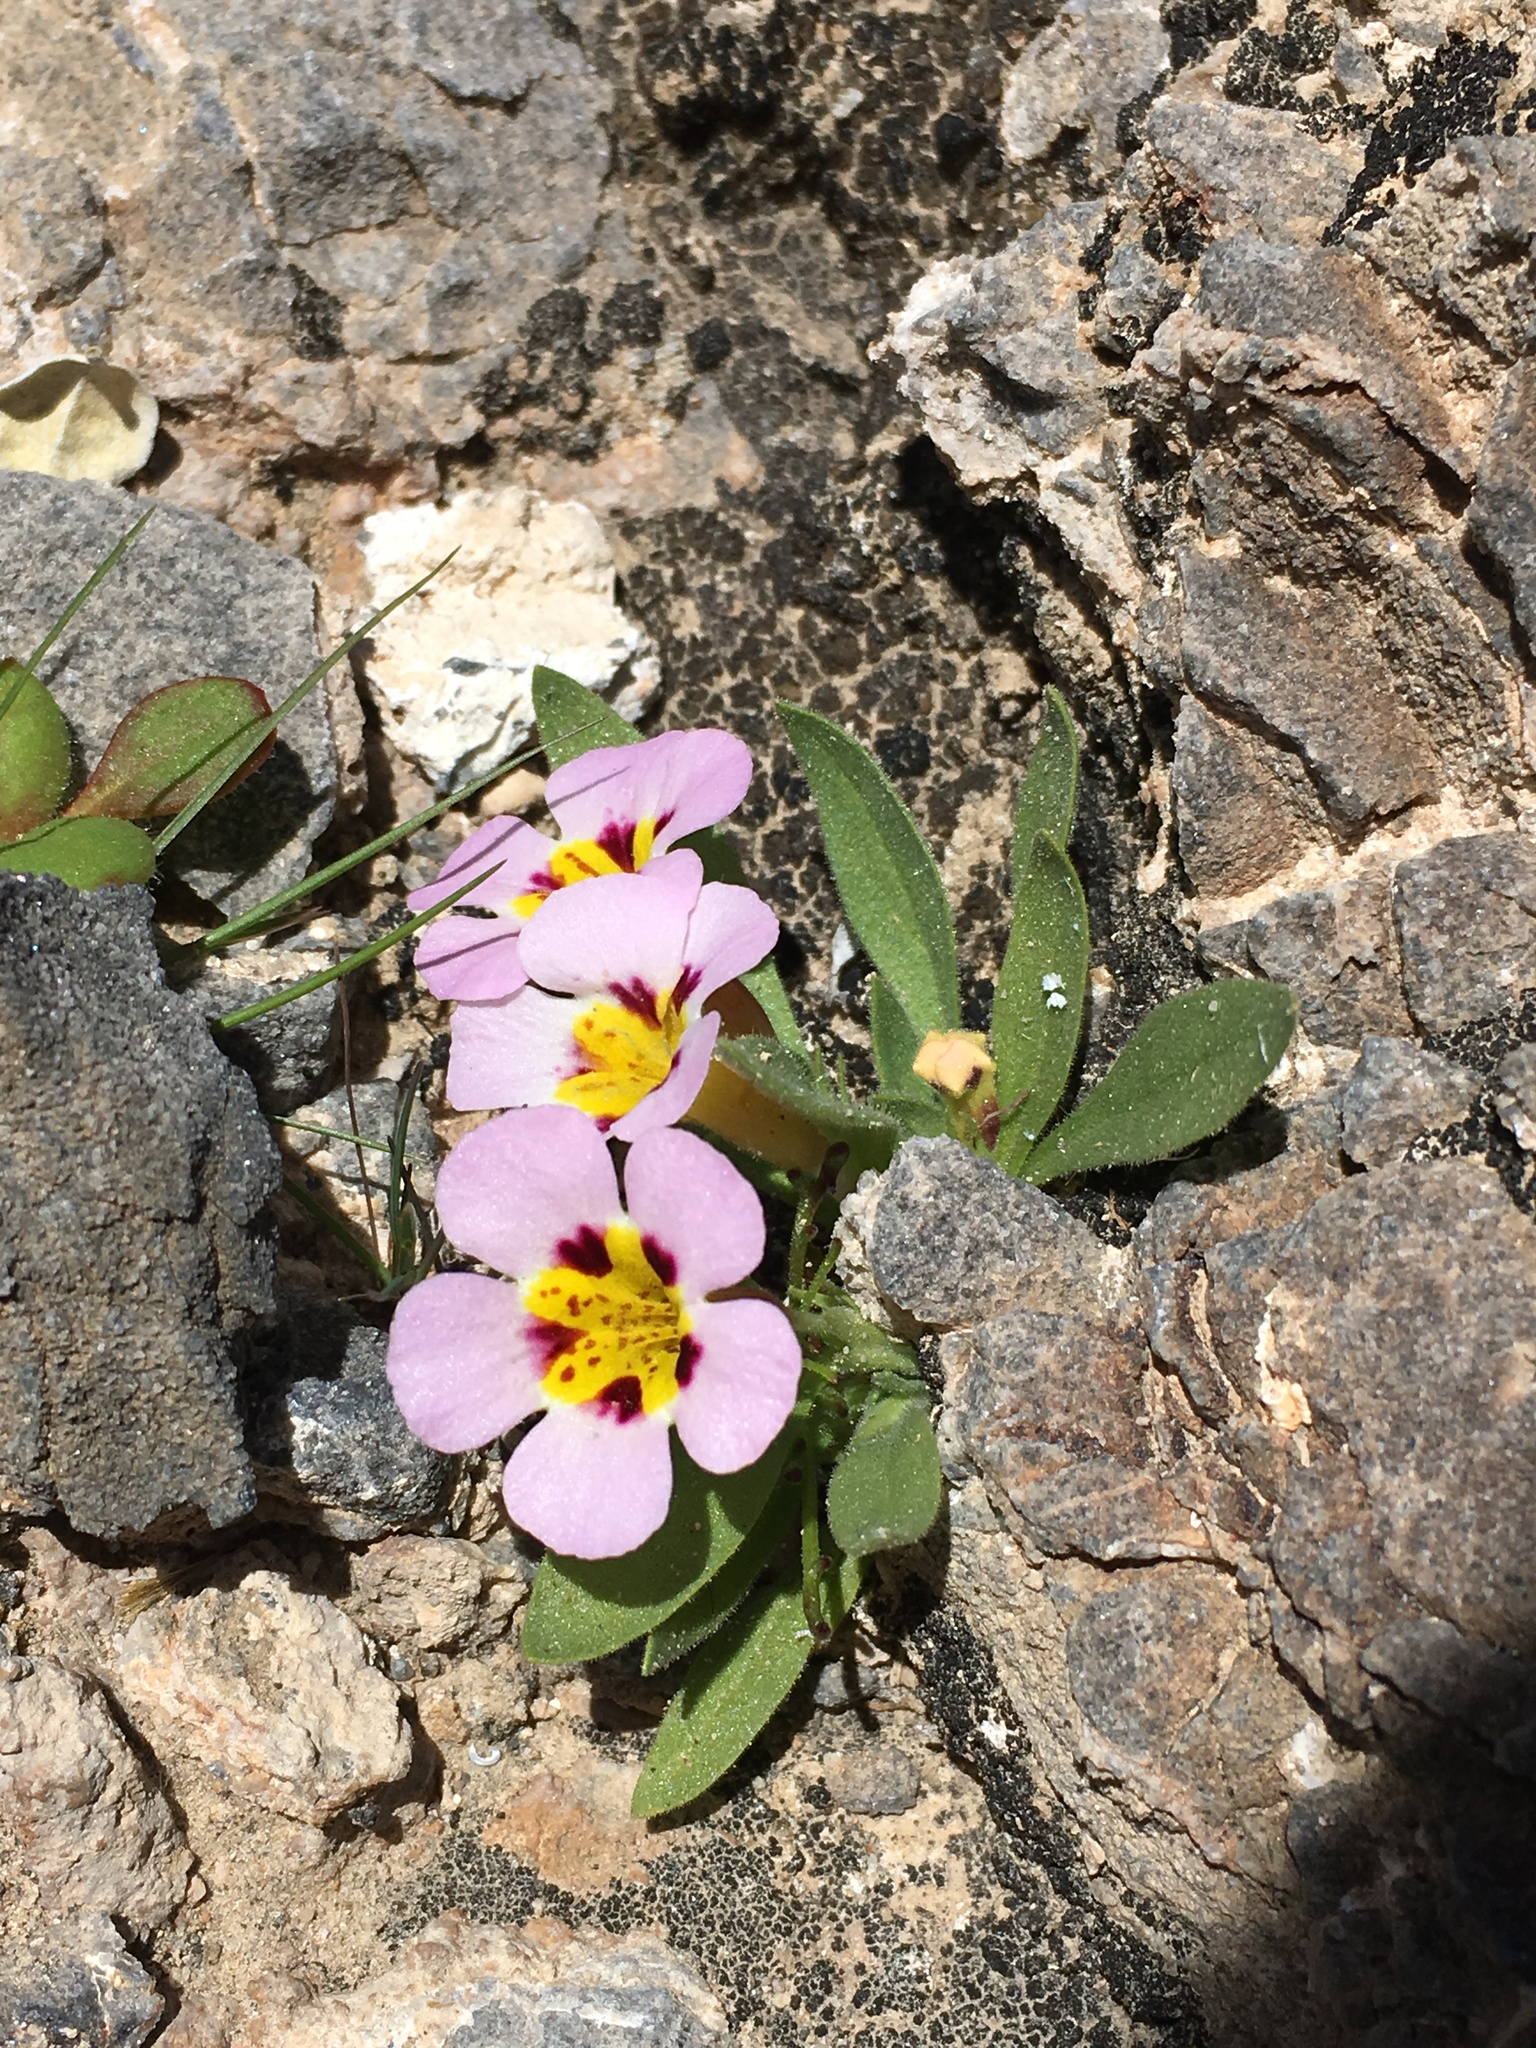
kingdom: Plantae
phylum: Tracheophyta
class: Magnoliopsida
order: Lamiales
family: Phrymaceae
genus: Diplacus
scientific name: Diplacus rupicola
